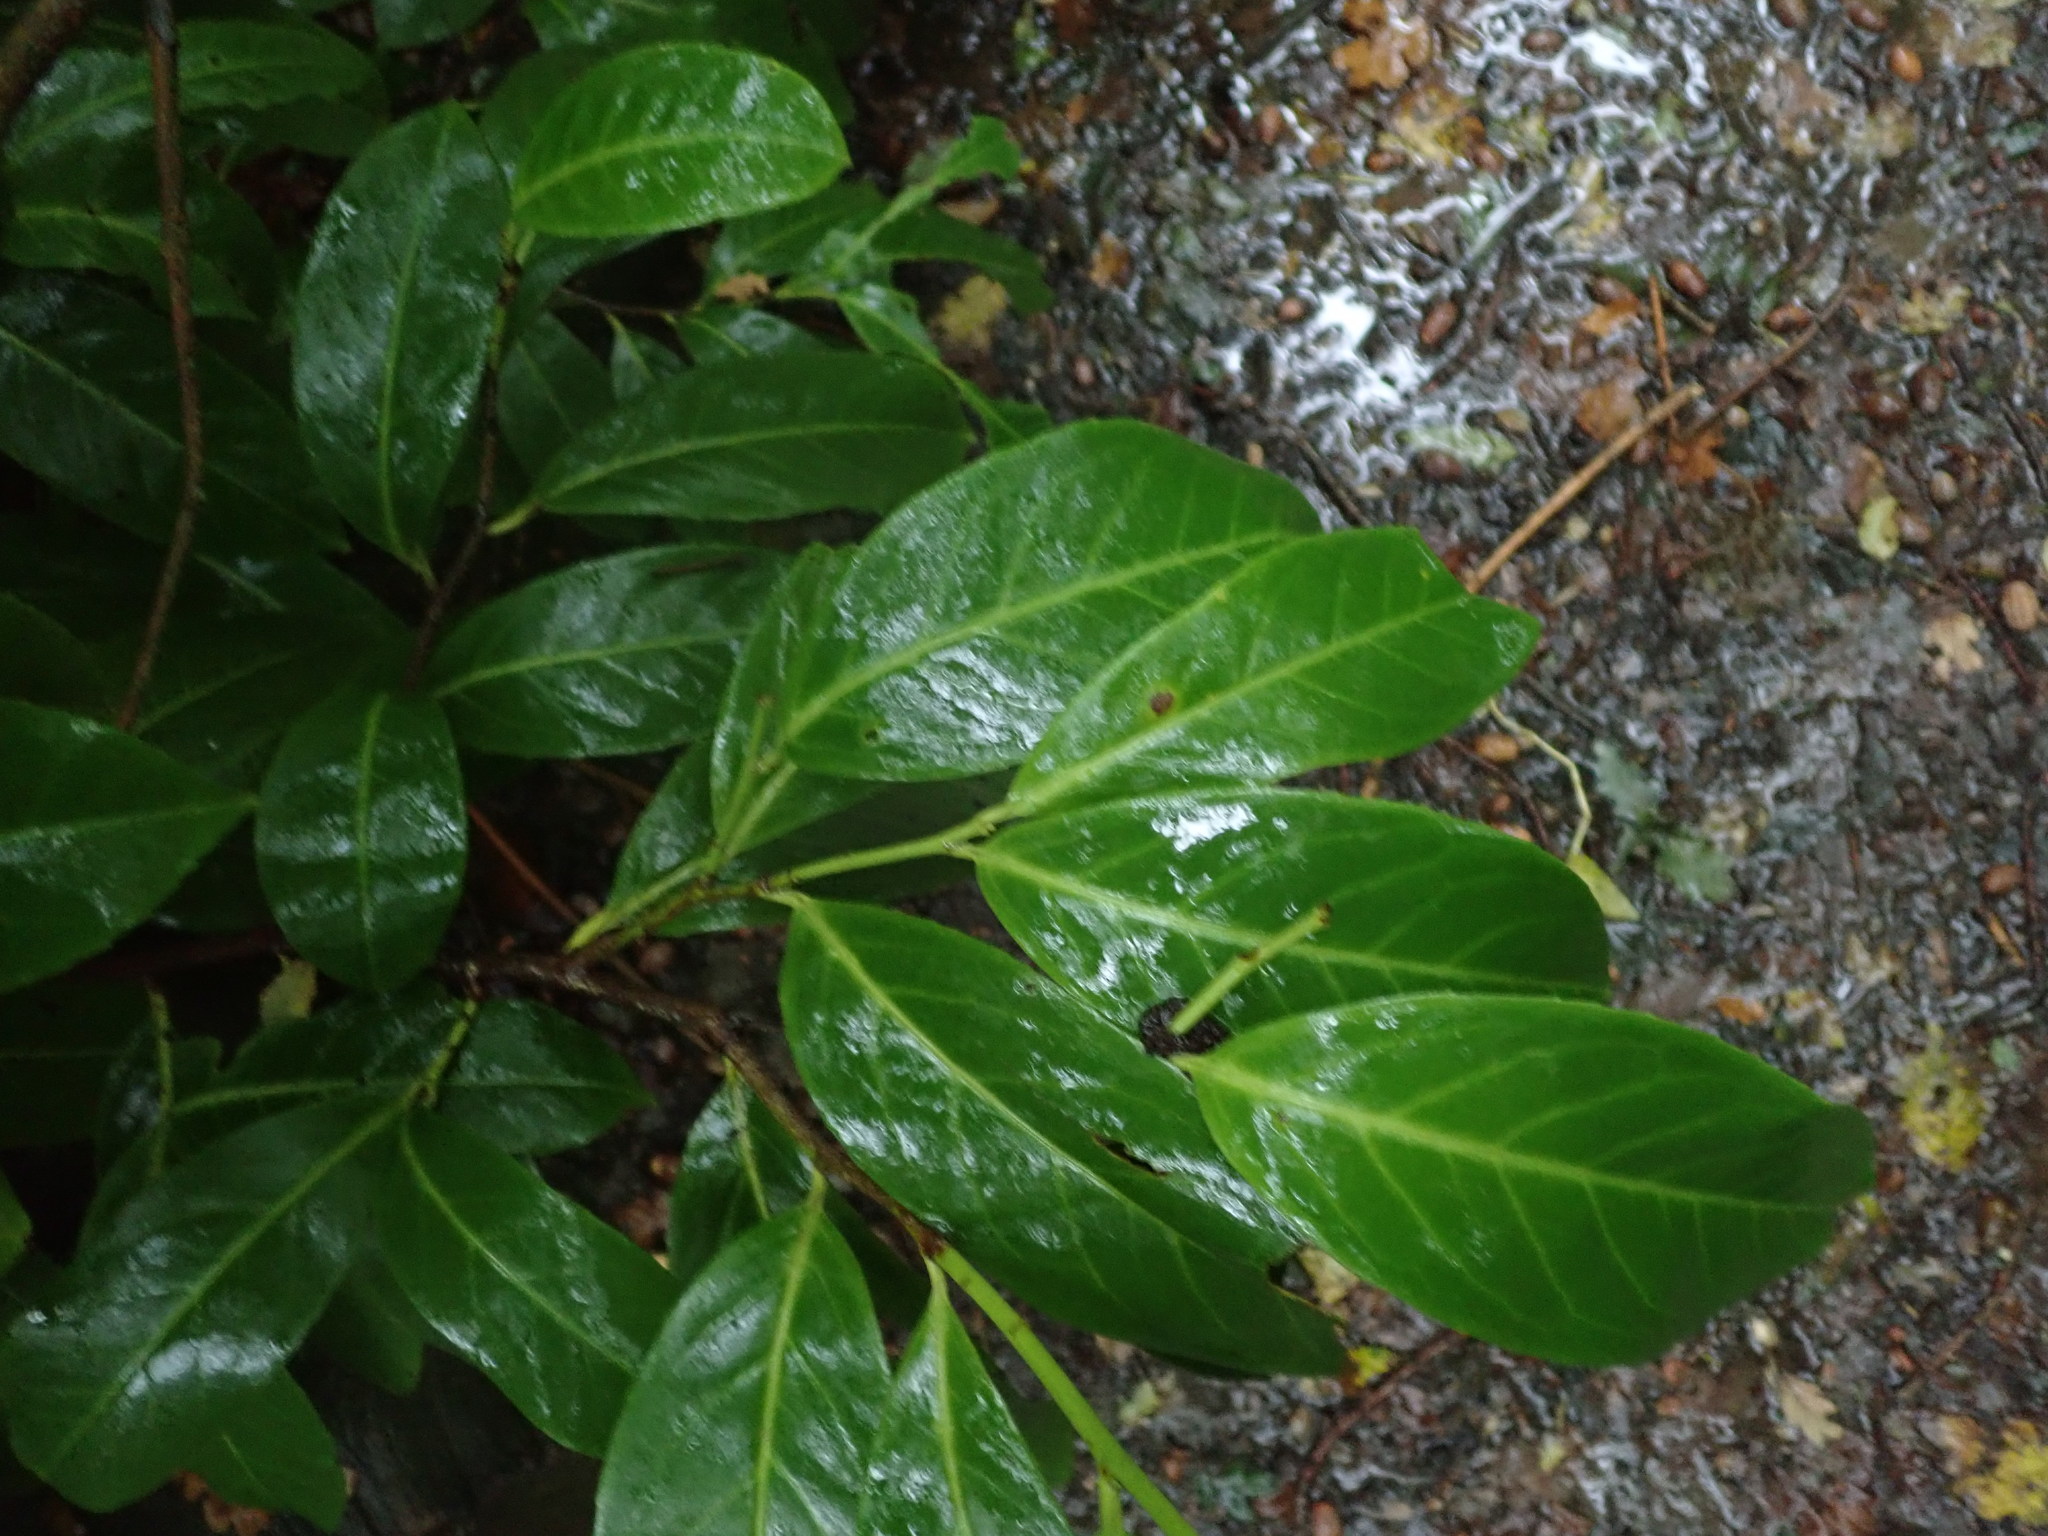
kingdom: Plantae
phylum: Tracheophyta
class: Magnoliopsida
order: Rosales
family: Rosaceae
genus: Prunus
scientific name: Prunus laurocerasus
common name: Cherry laurel
